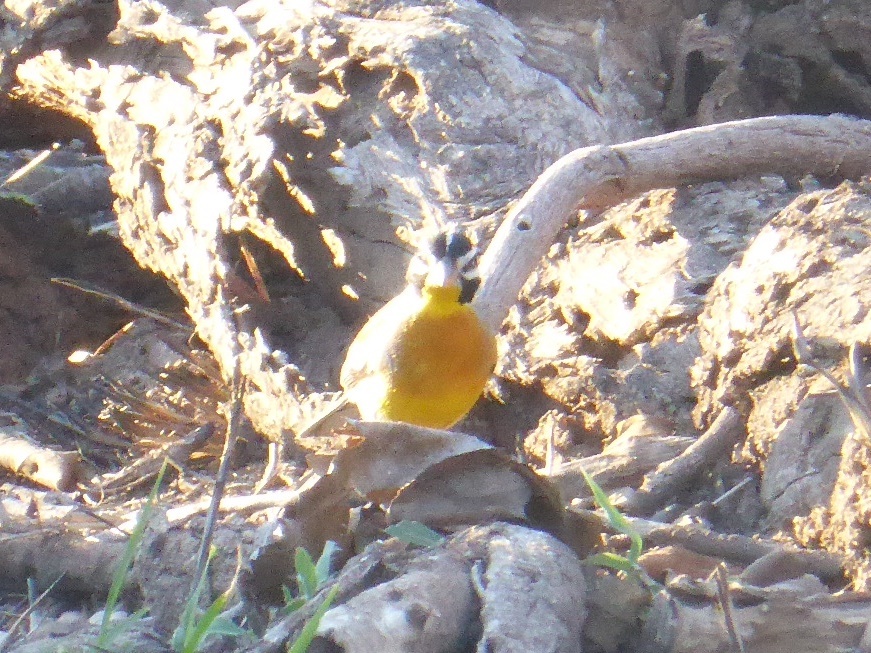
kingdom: Animalia
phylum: Chordata
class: Aves
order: Passeriformes
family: Emberizidae
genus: Emberiza
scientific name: Emberiza flaviventris
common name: Golden-breasted bunting
